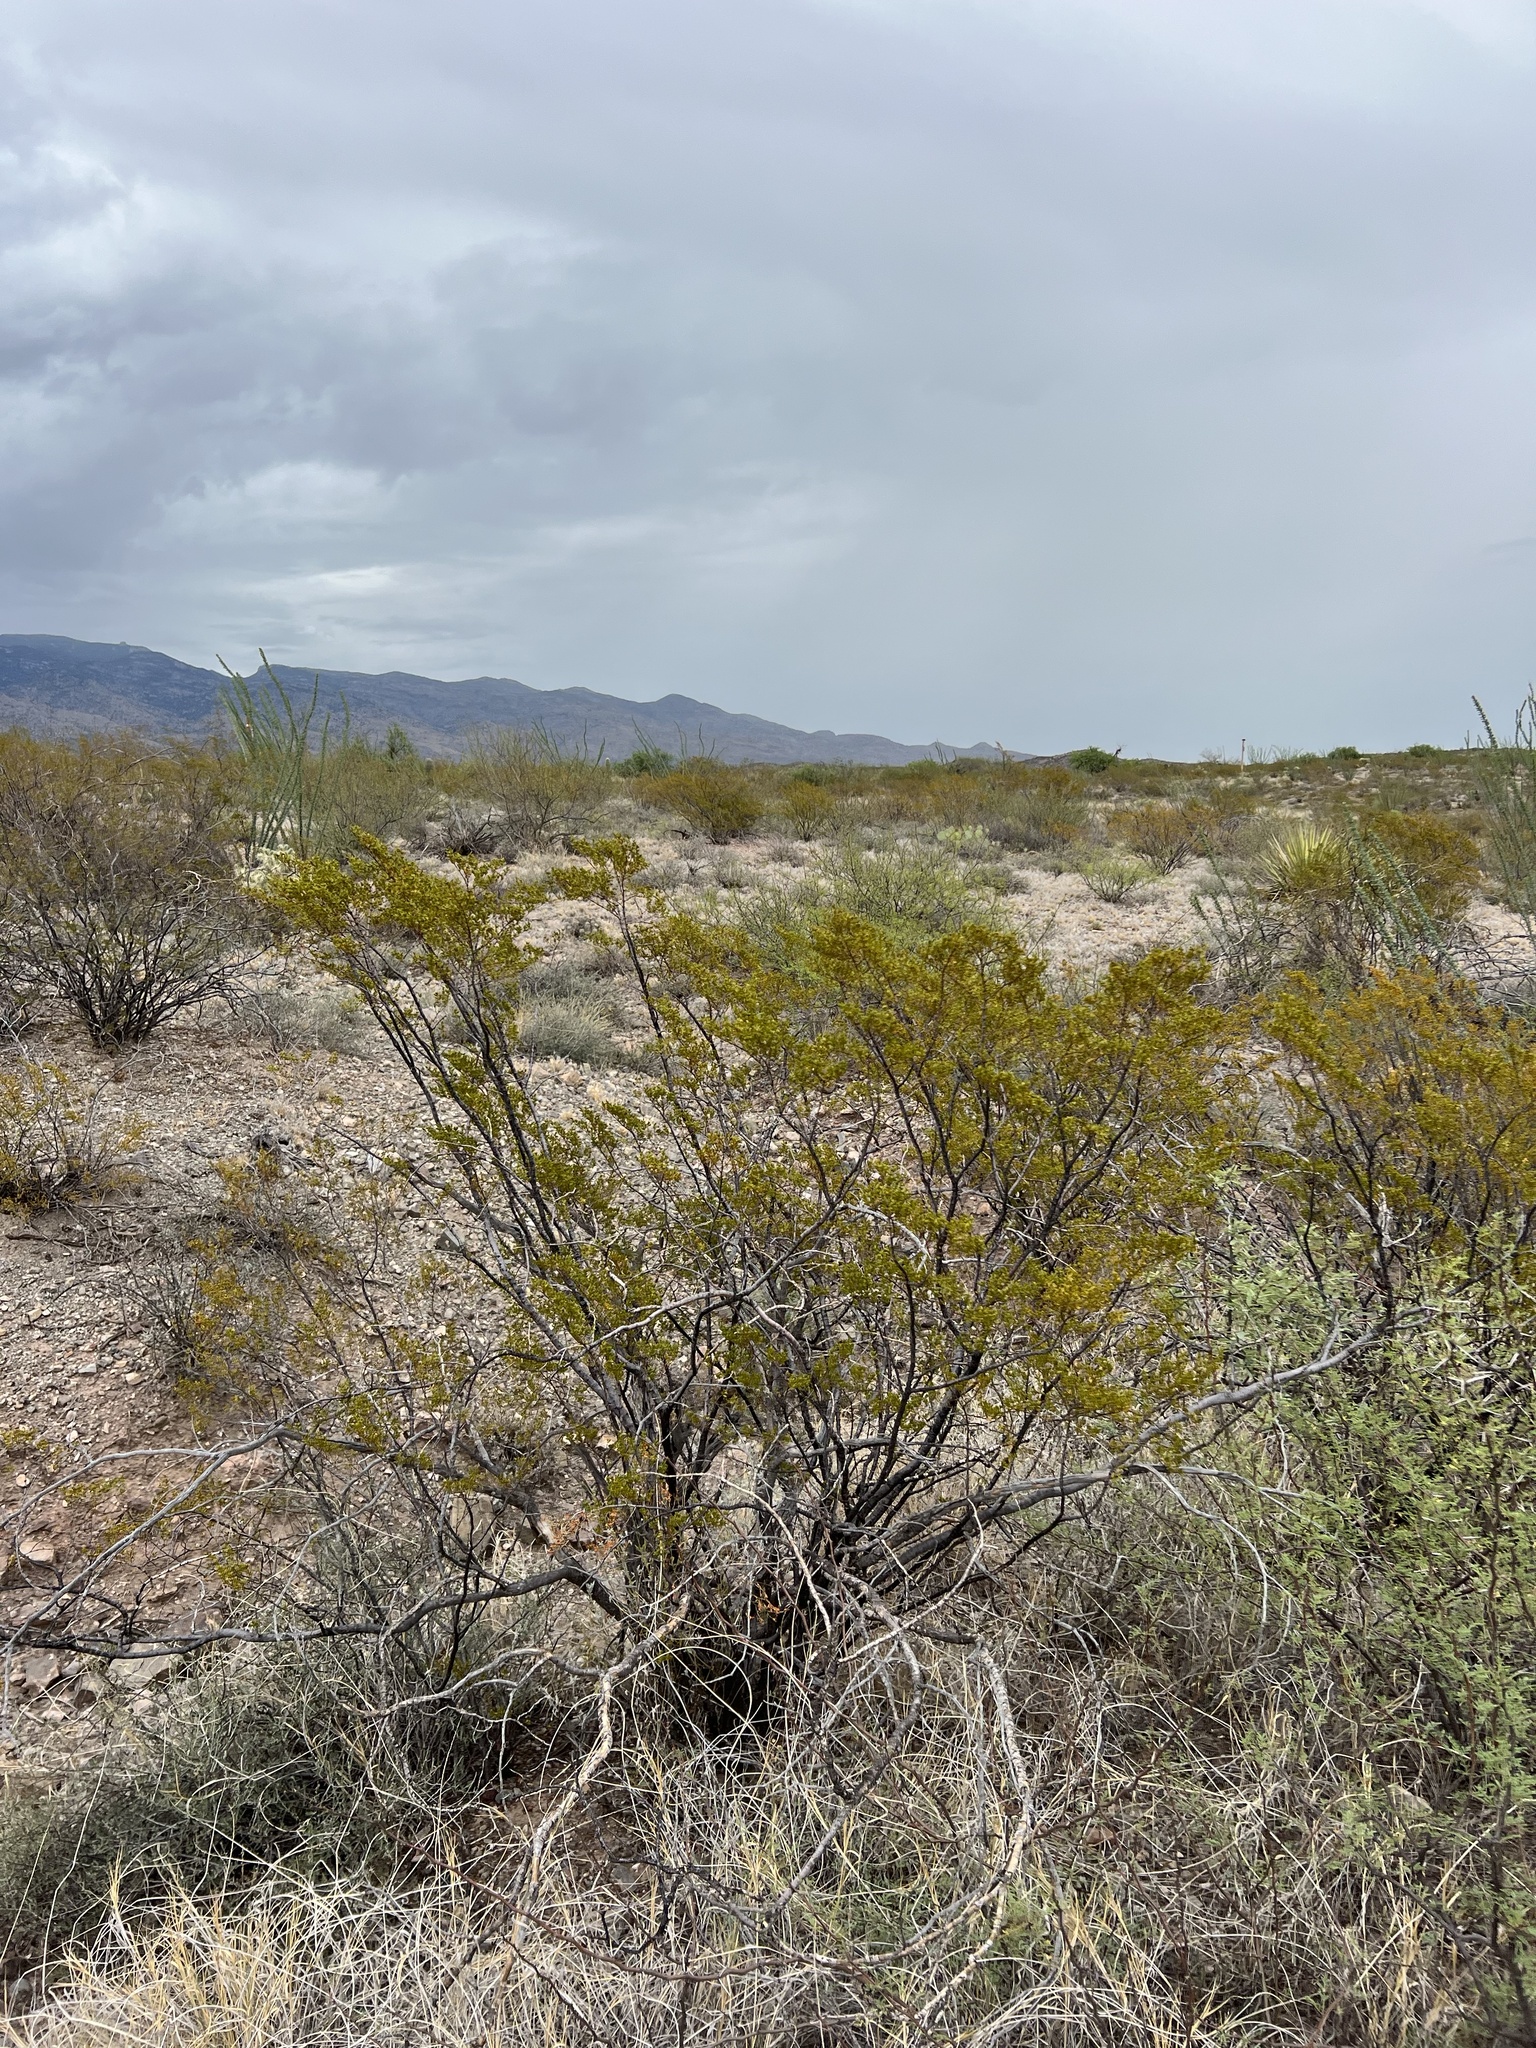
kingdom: Plantae
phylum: Tracheophyta
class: Magnoliopsida
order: Zygophyllales
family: Zygophyllaceae
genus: Larrea
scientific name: Larrea tridentata
